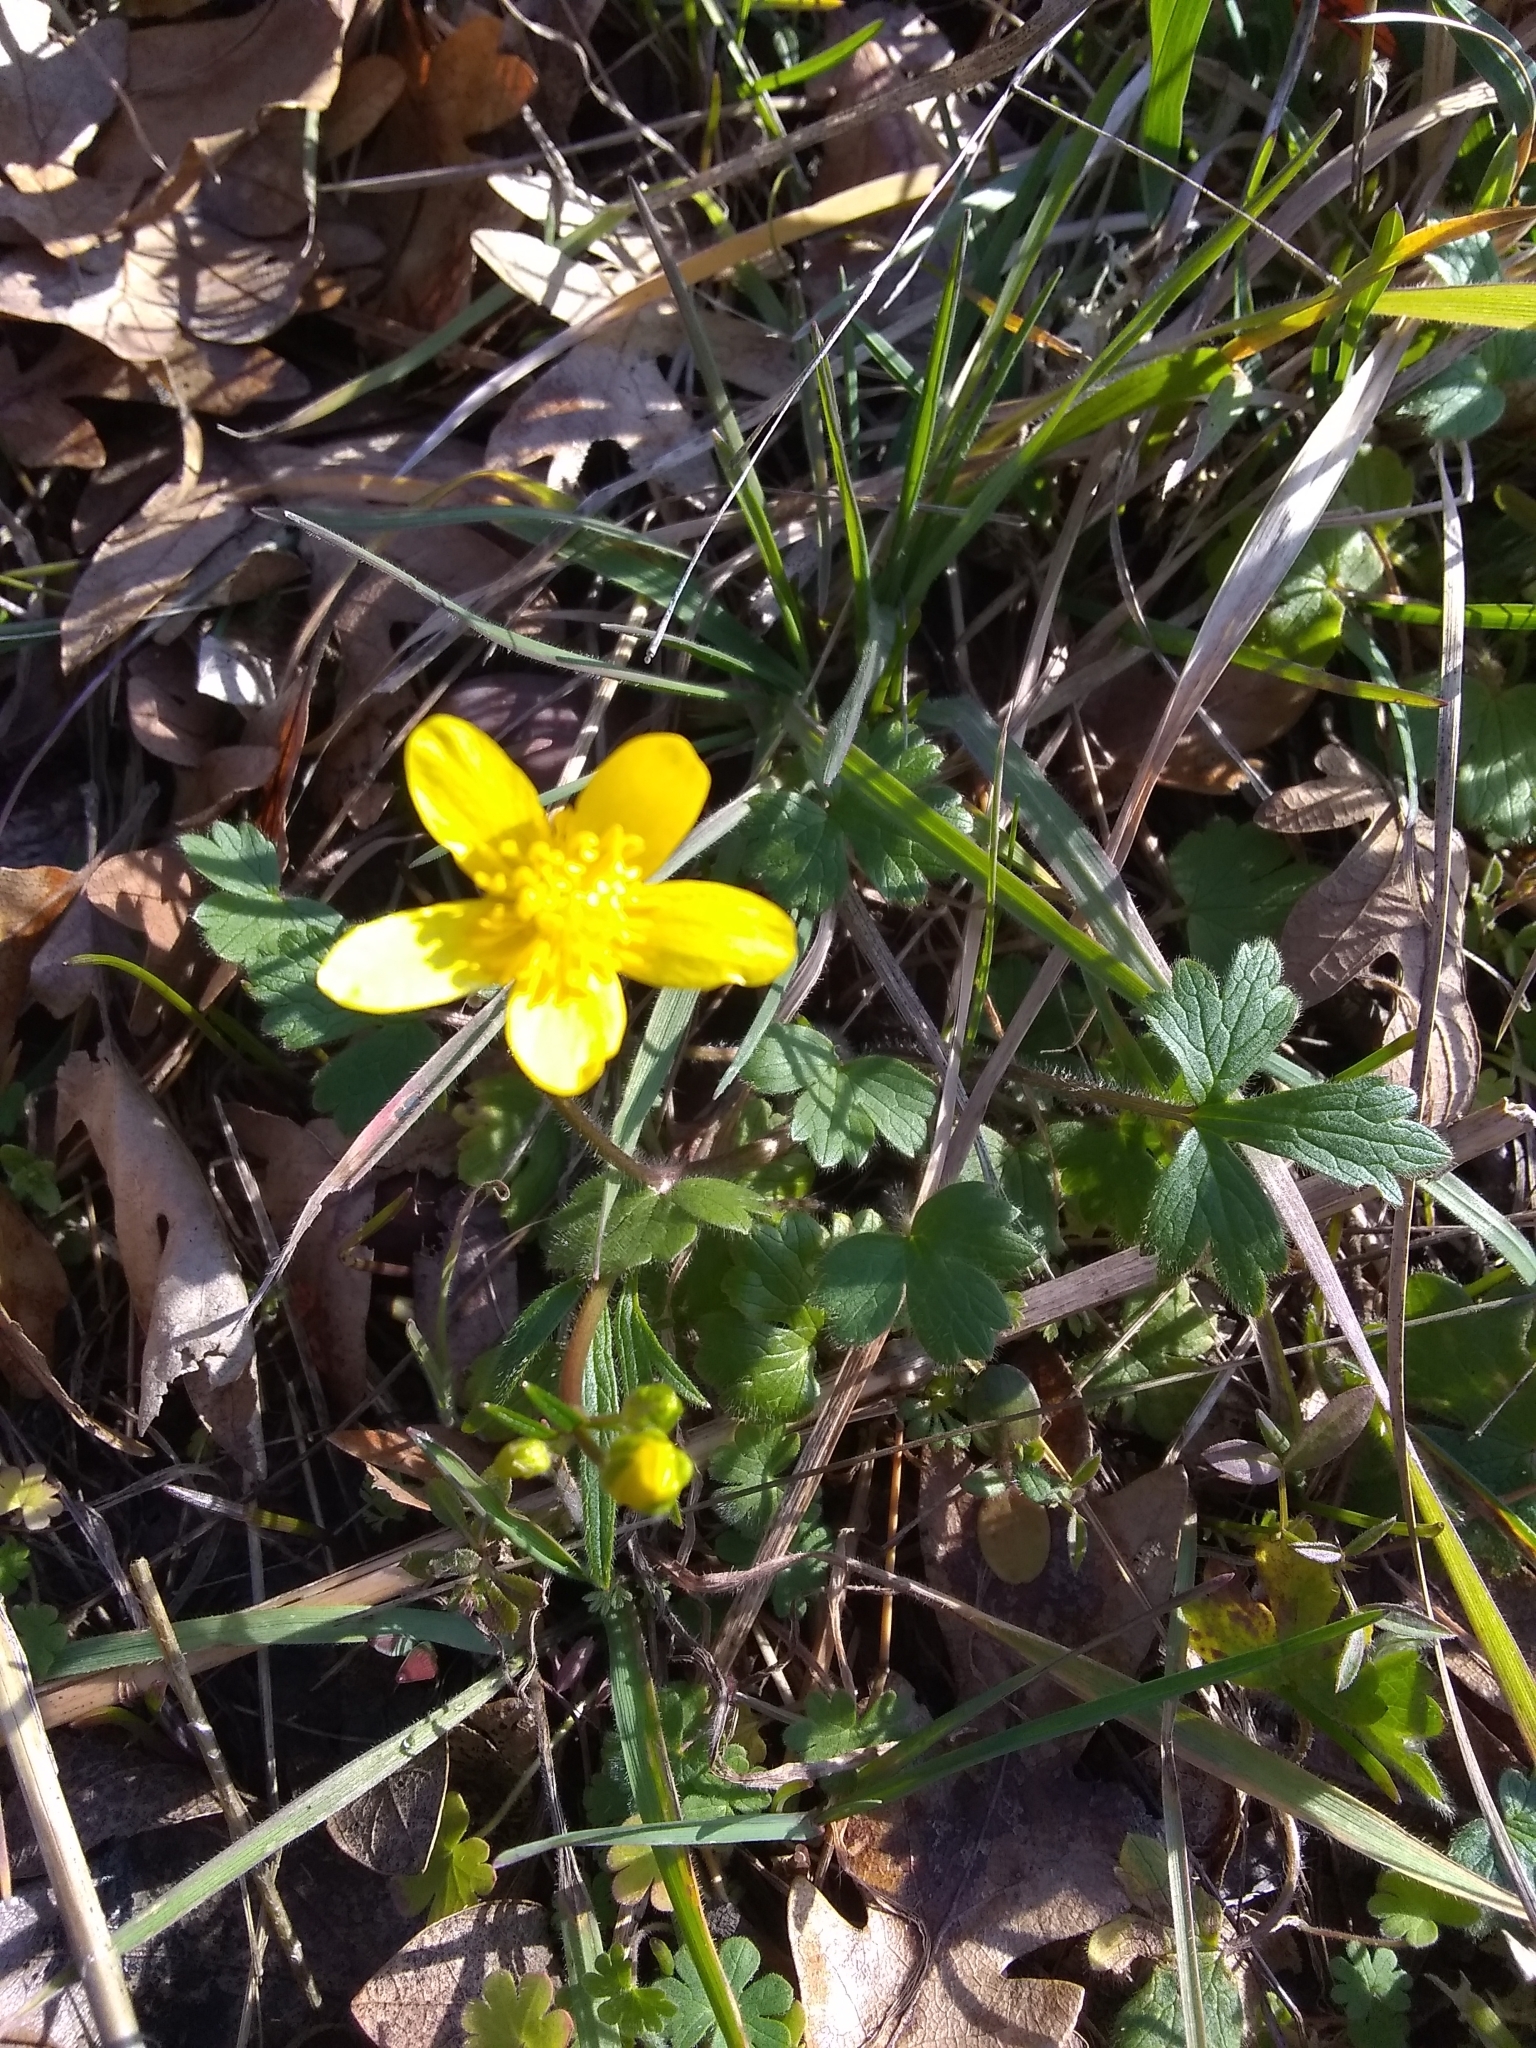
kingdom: Plantae
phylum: Tracheophyta
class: Magnoliopsida
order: Ranunculales
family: Ranunculaceae
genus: Ranunculus
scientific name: Ranunculus occidentalis
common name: Western buttercup
